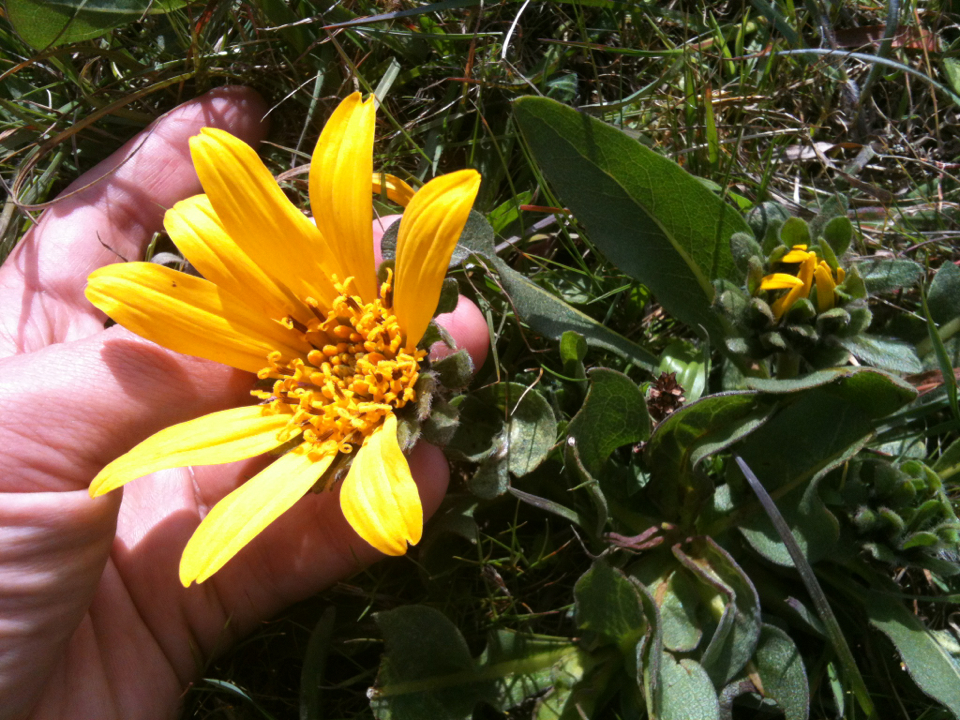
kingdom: Plantae
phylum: Tracheophyta
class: Magnoliopsida
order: Asterales
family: Asteraceae
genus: Wyethia
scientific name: Wyethia angustifolia
